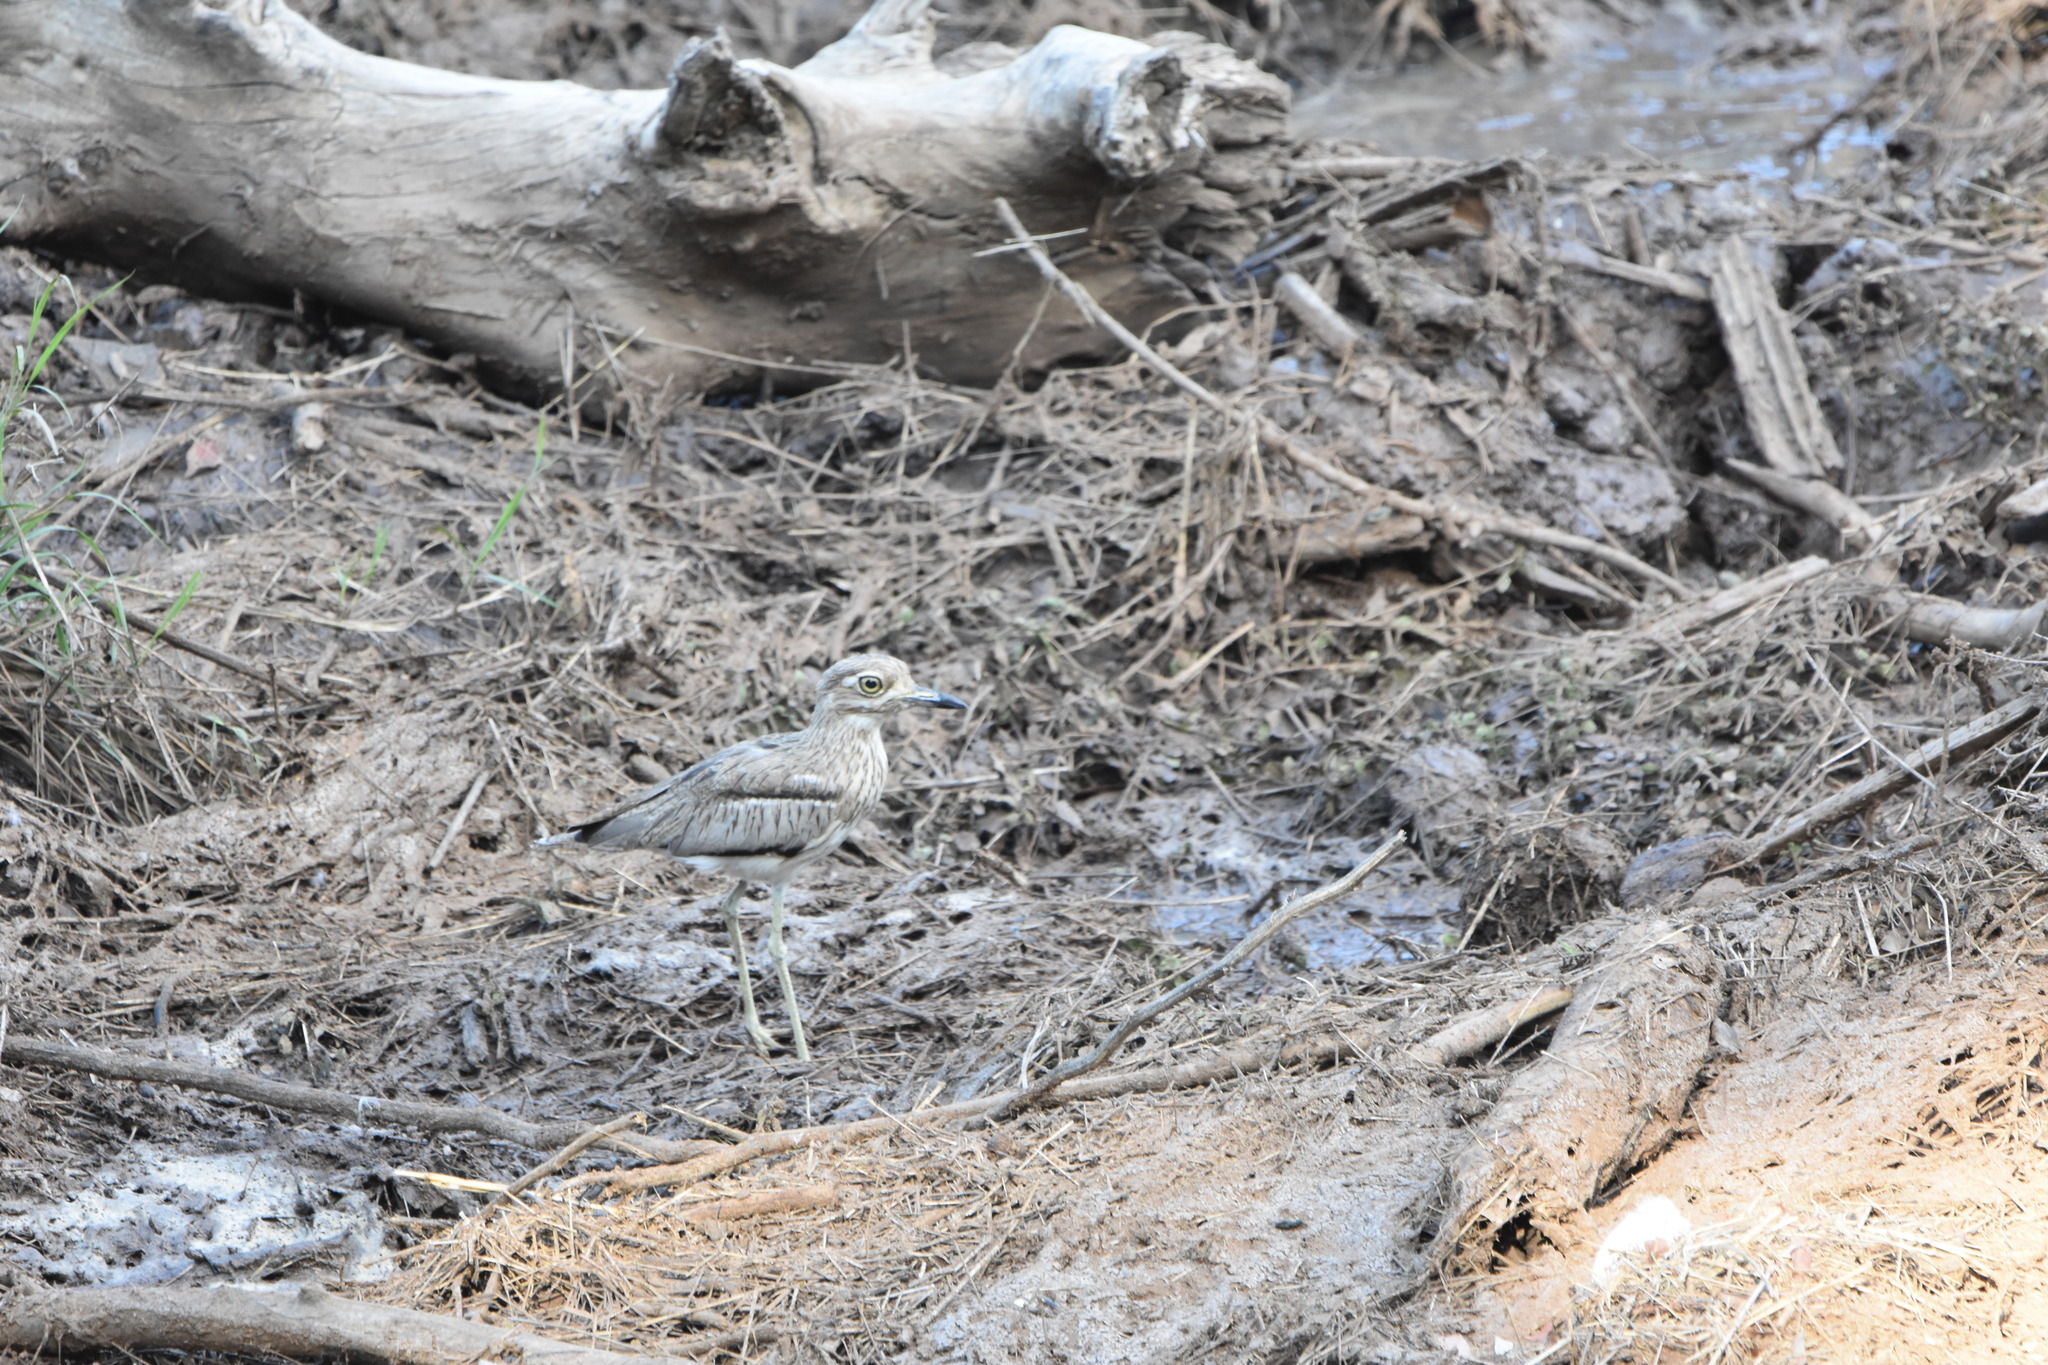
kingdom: Animalia
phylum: Chordata
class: Aves
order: Charadriiformes
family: Burhinidae
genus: Burhinus
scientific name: Burhinus vermiculatus
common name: Water thick-knee
